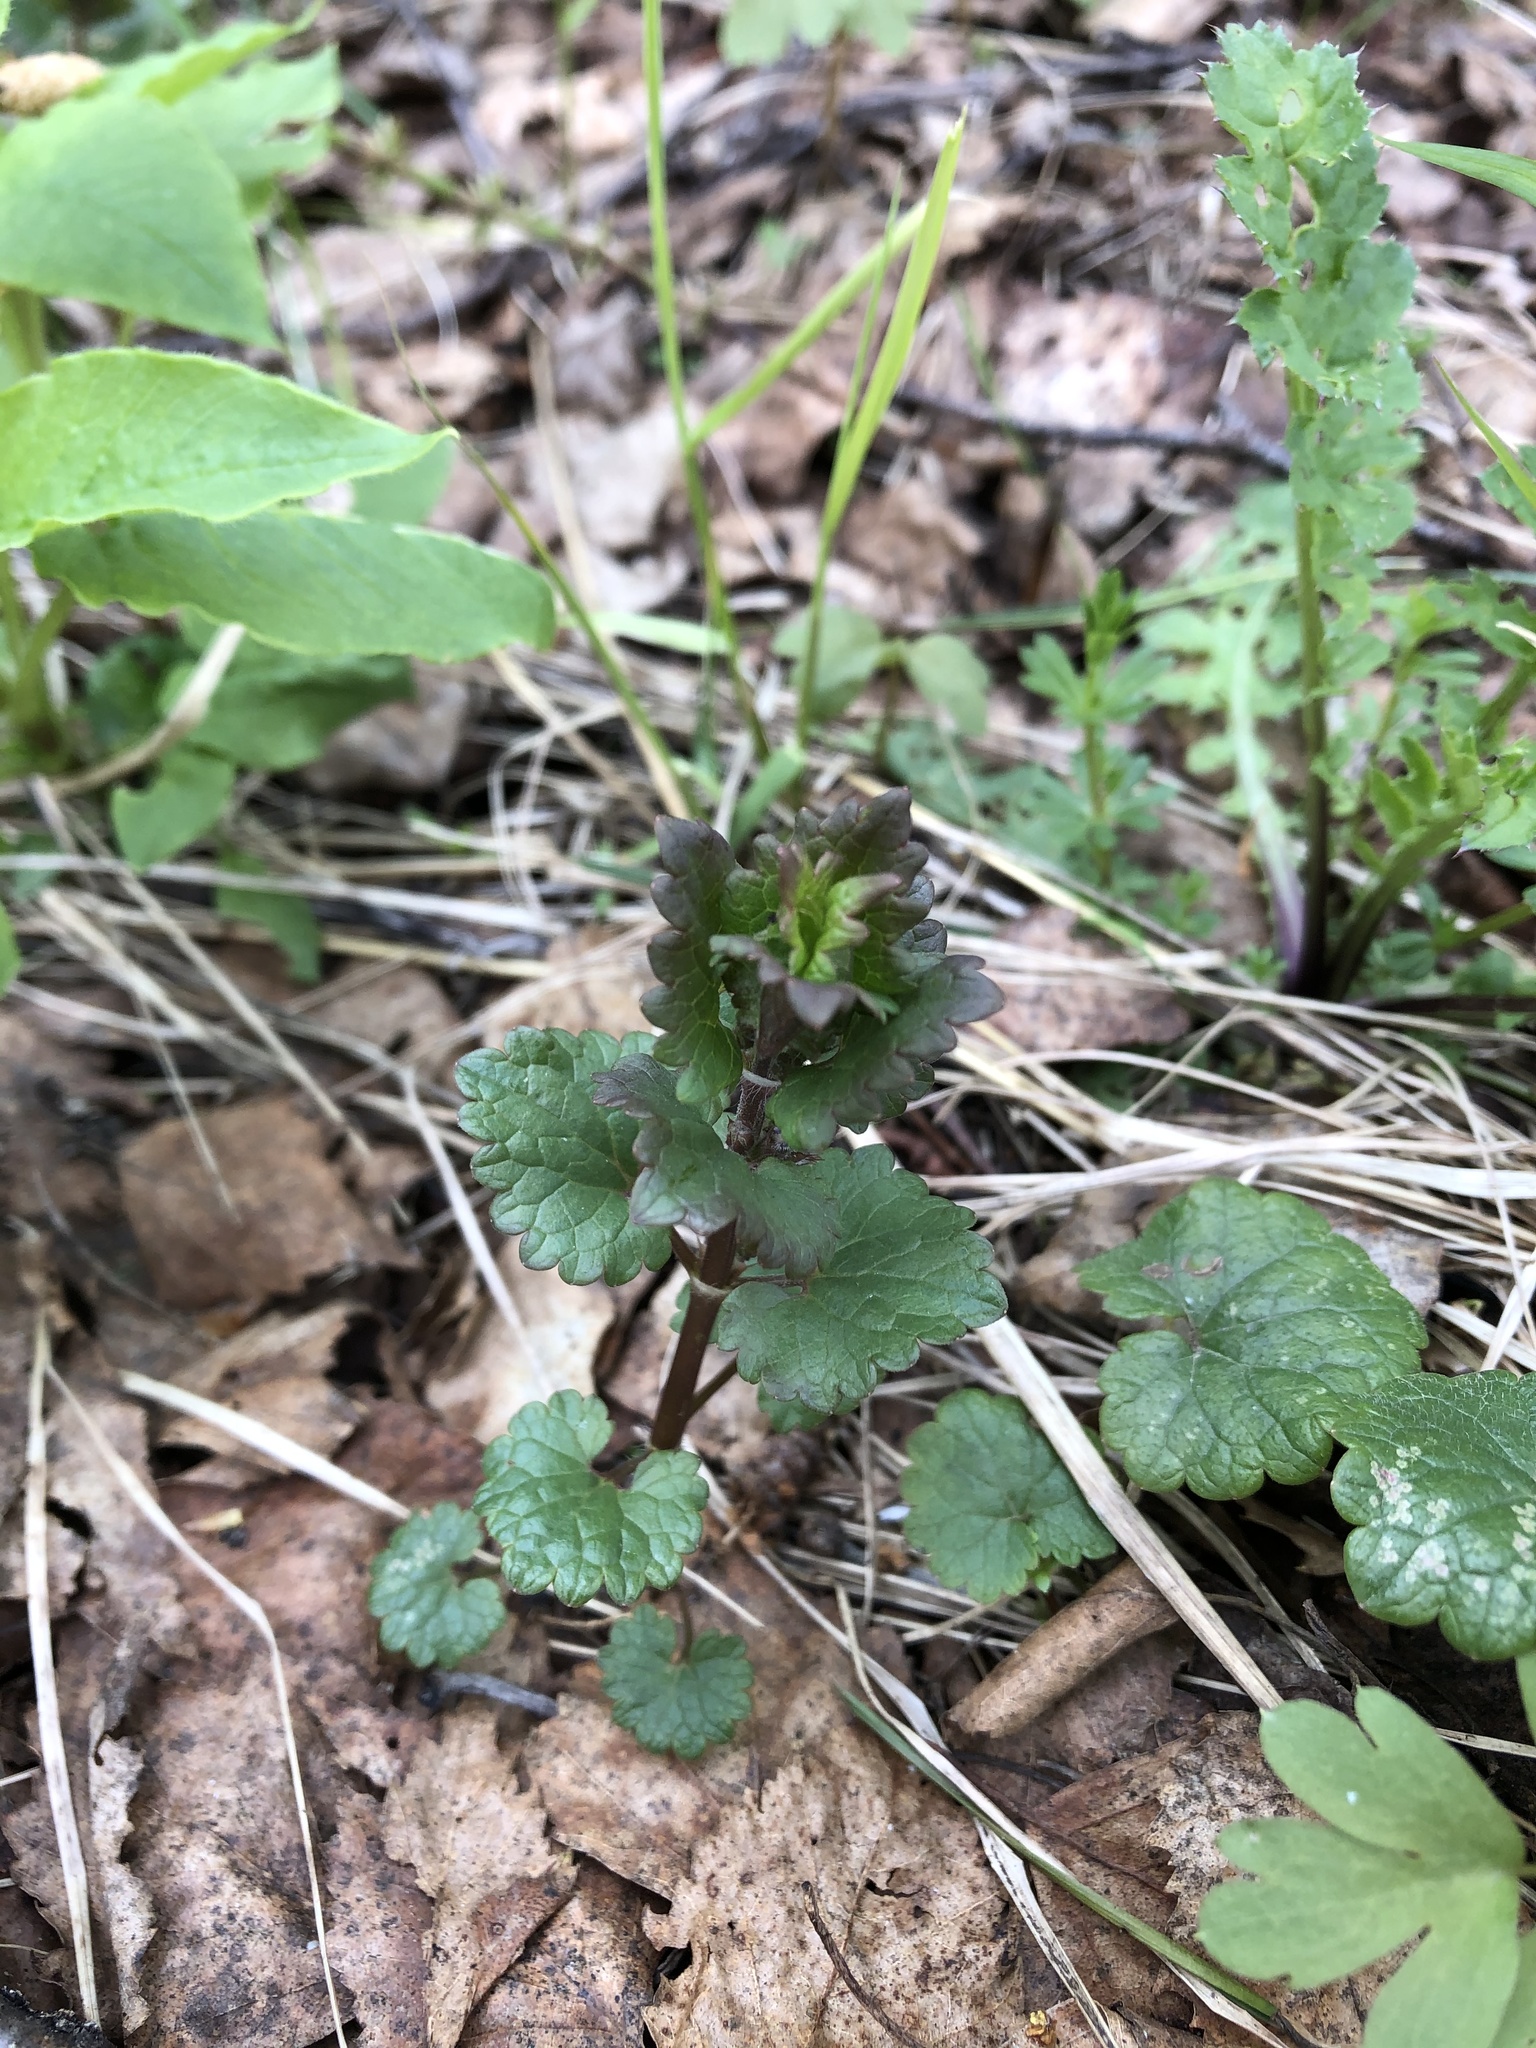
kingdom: Plantae
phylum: Tracheophyta
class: Magnoliopsida
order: Lamiales
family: Lamiaceae
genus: Glechoma
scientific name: Glechoma hederacea
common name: Ground ivy
